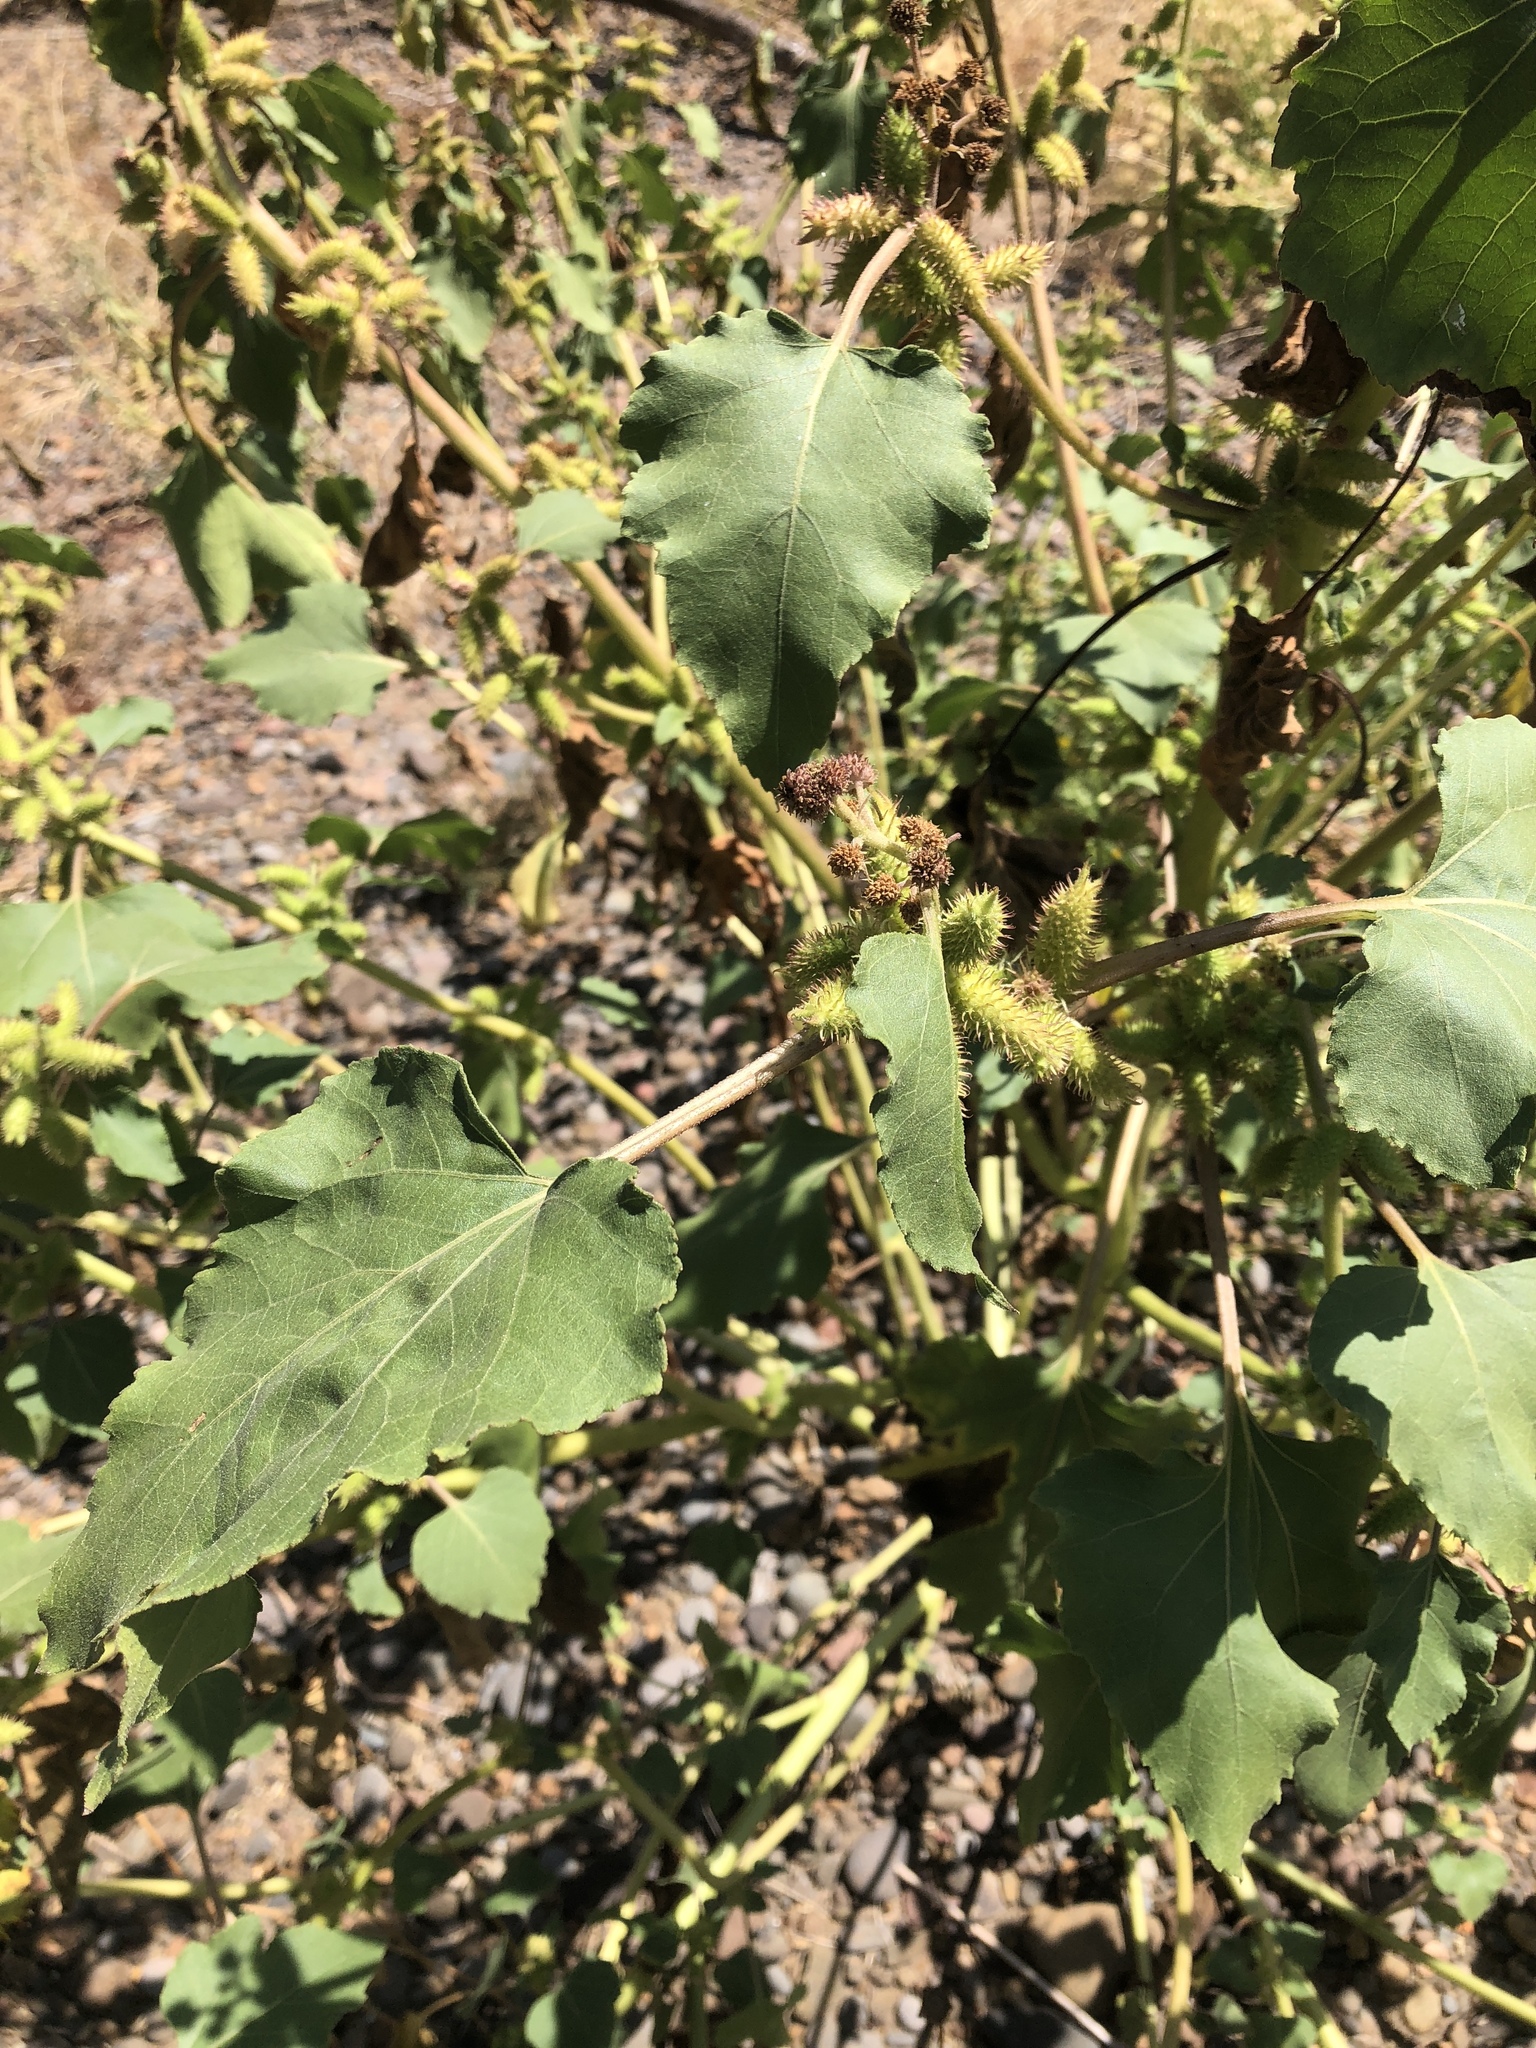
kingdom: Plantae
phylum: Tracheophyta
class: Magnoliopsida
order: Asterales
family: Asteraceae
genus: Xanthium
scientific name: Xanthium strumarium
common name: Rough cocklebur
